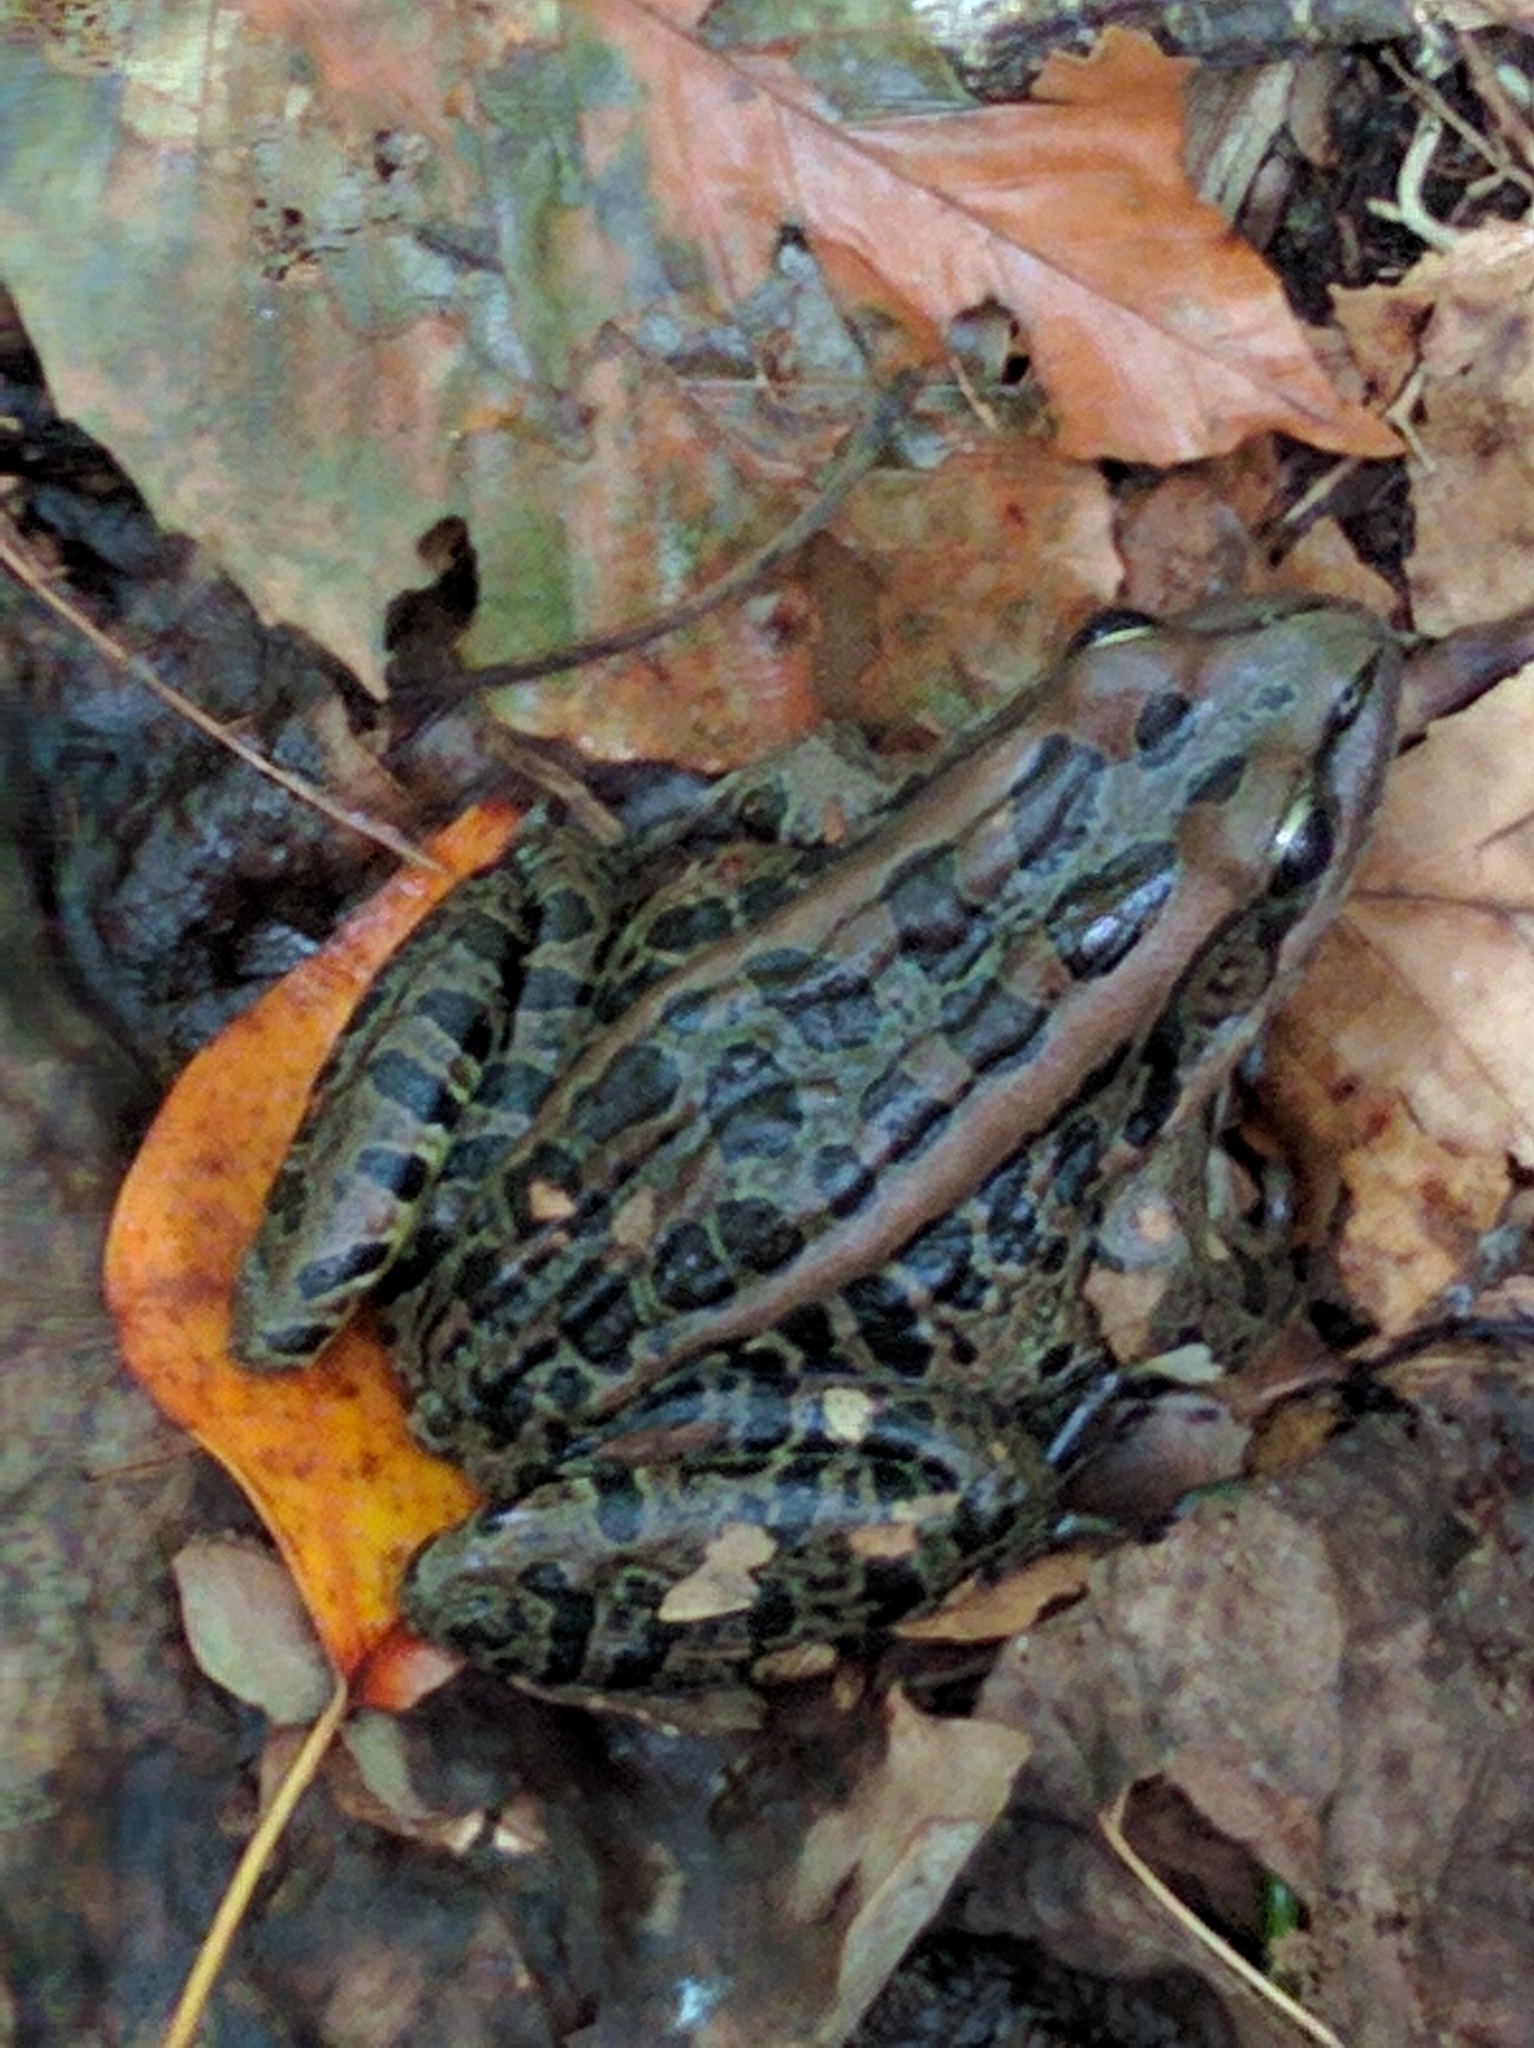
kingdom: Animalia
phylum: Chordata
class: Amphibia
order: Anura
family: Ranidae
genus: Lithobates
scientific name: Lithobates palustris
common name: Pickerel frog
